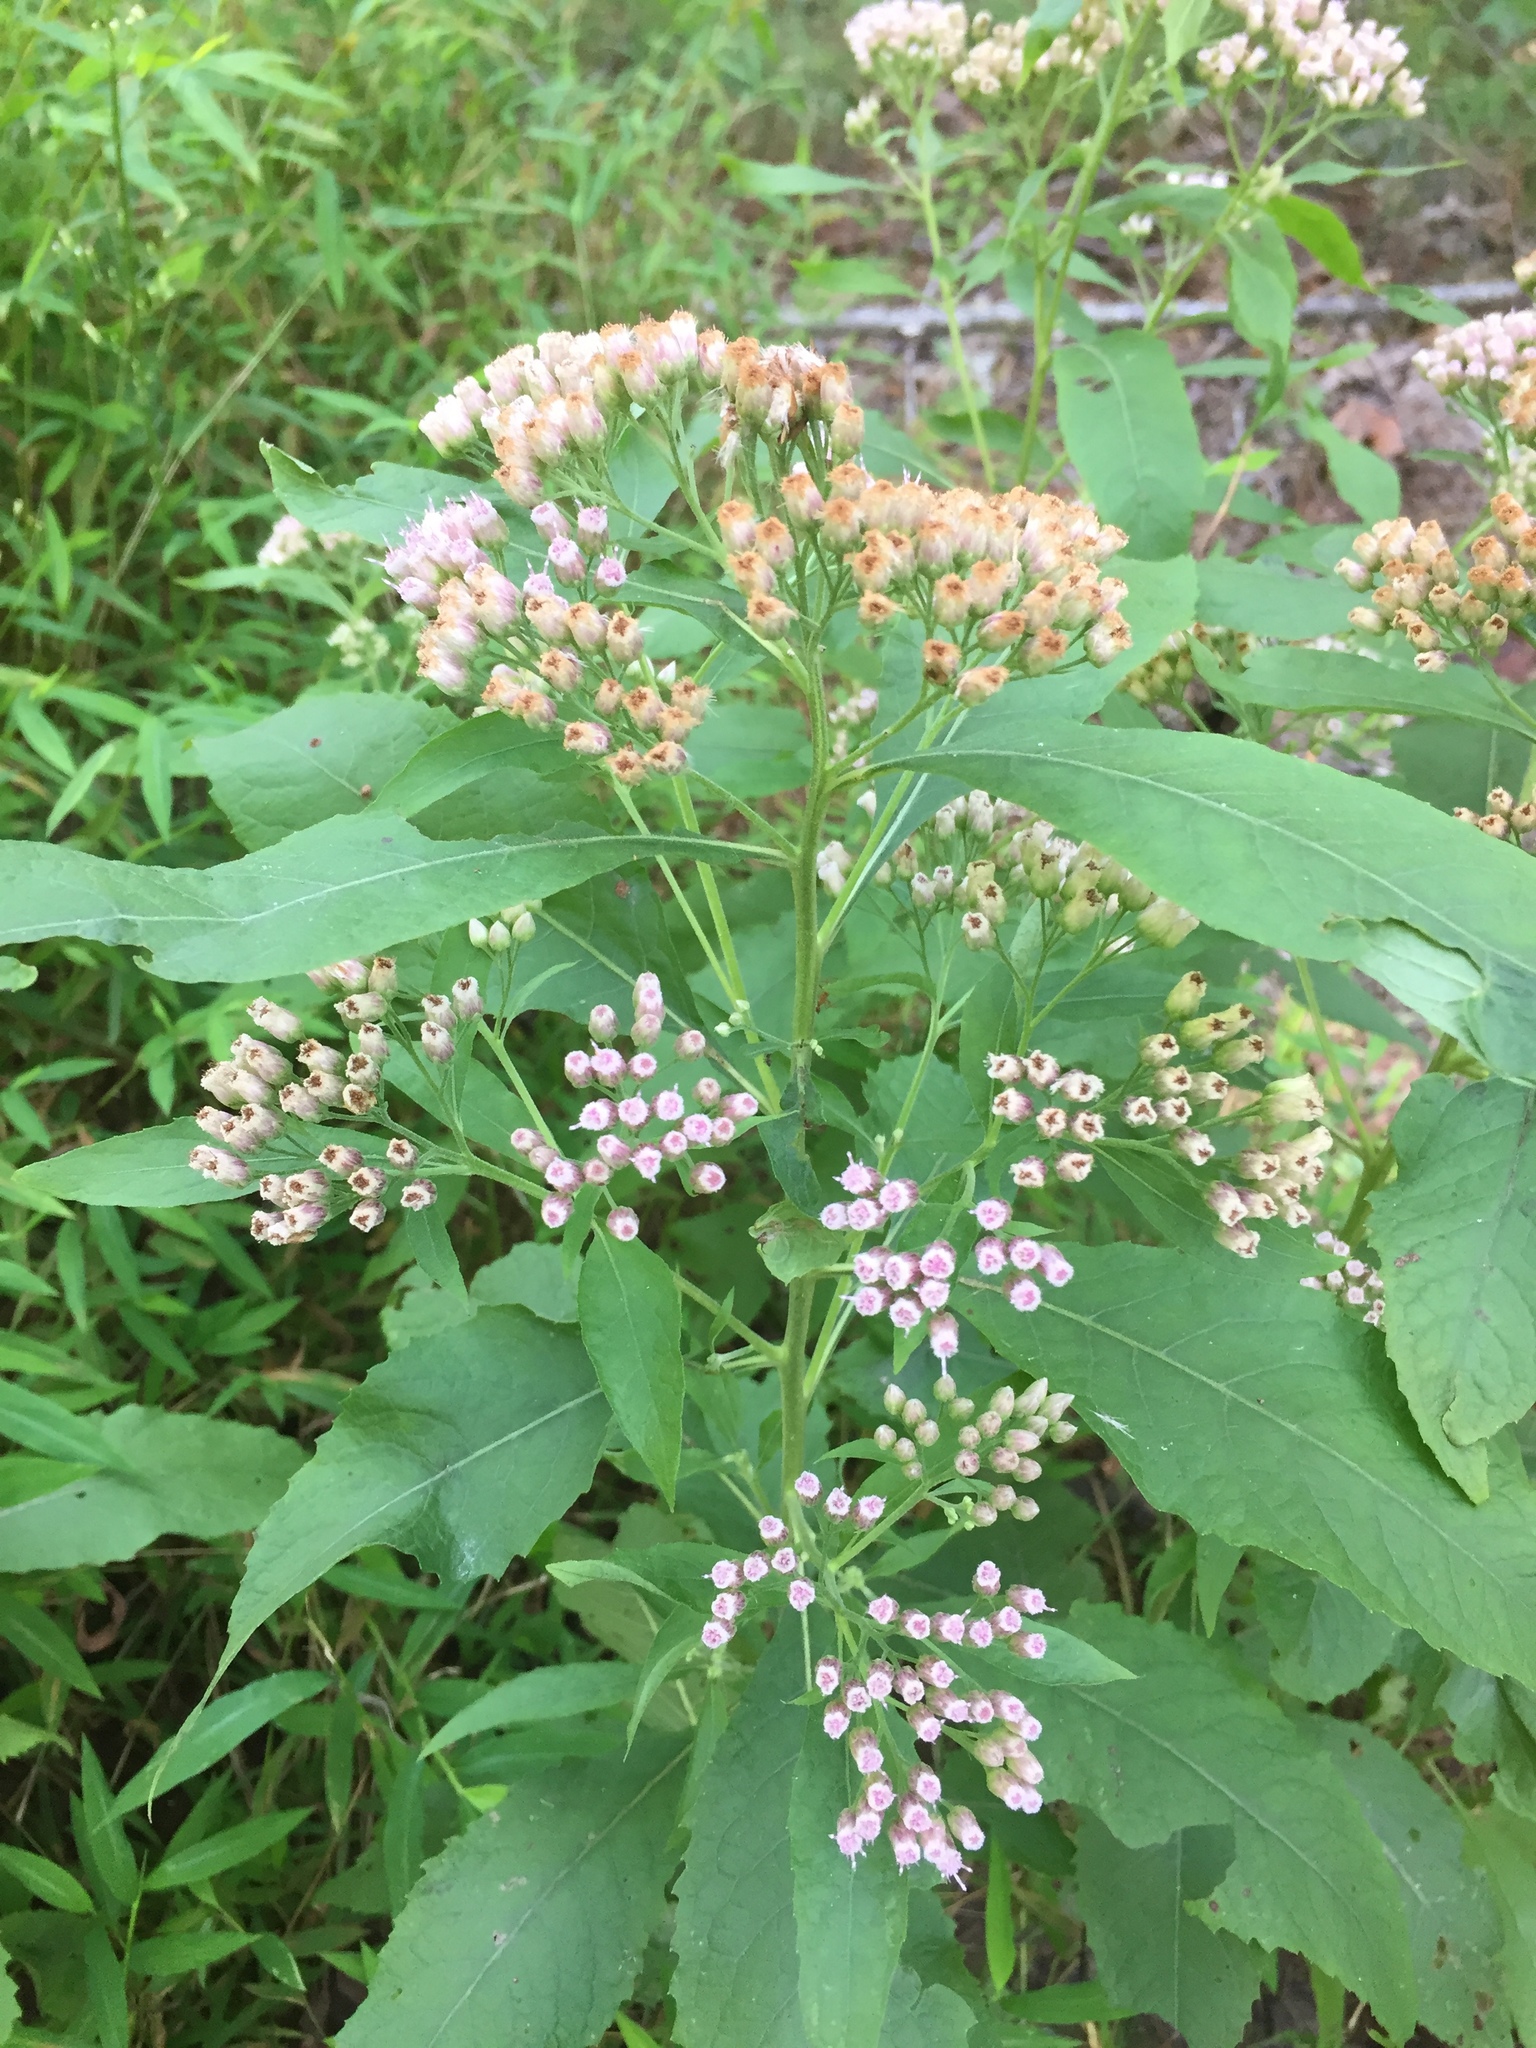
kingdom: Plantae
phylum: Tracheophyta
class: Magnoliopsida
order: Asterales
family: Asteraceae
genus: Pluchea
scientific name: Pluchea camphorata
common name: Camphor pluchea
